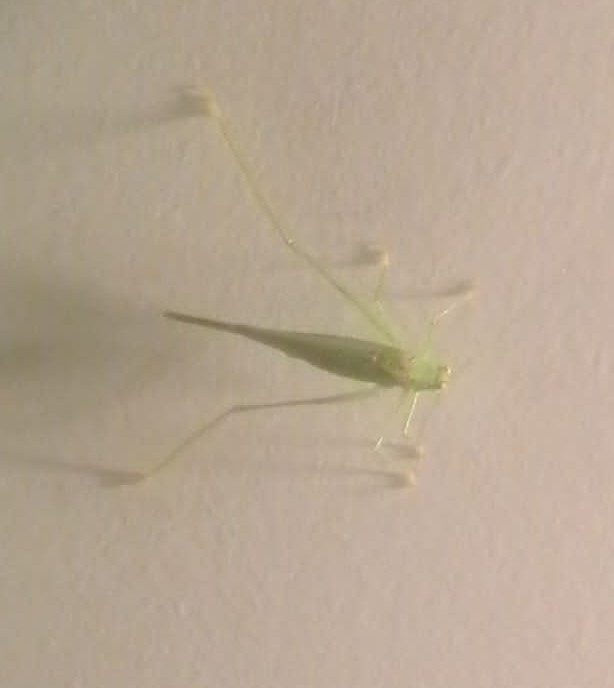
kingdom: Animalia
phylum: Arthropoda
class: Insecta
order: Orthoptera
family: Tettigoniidae
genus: Phaneroptera
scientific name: Phaneroptera nana
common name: Southern sickle bush-cricket
